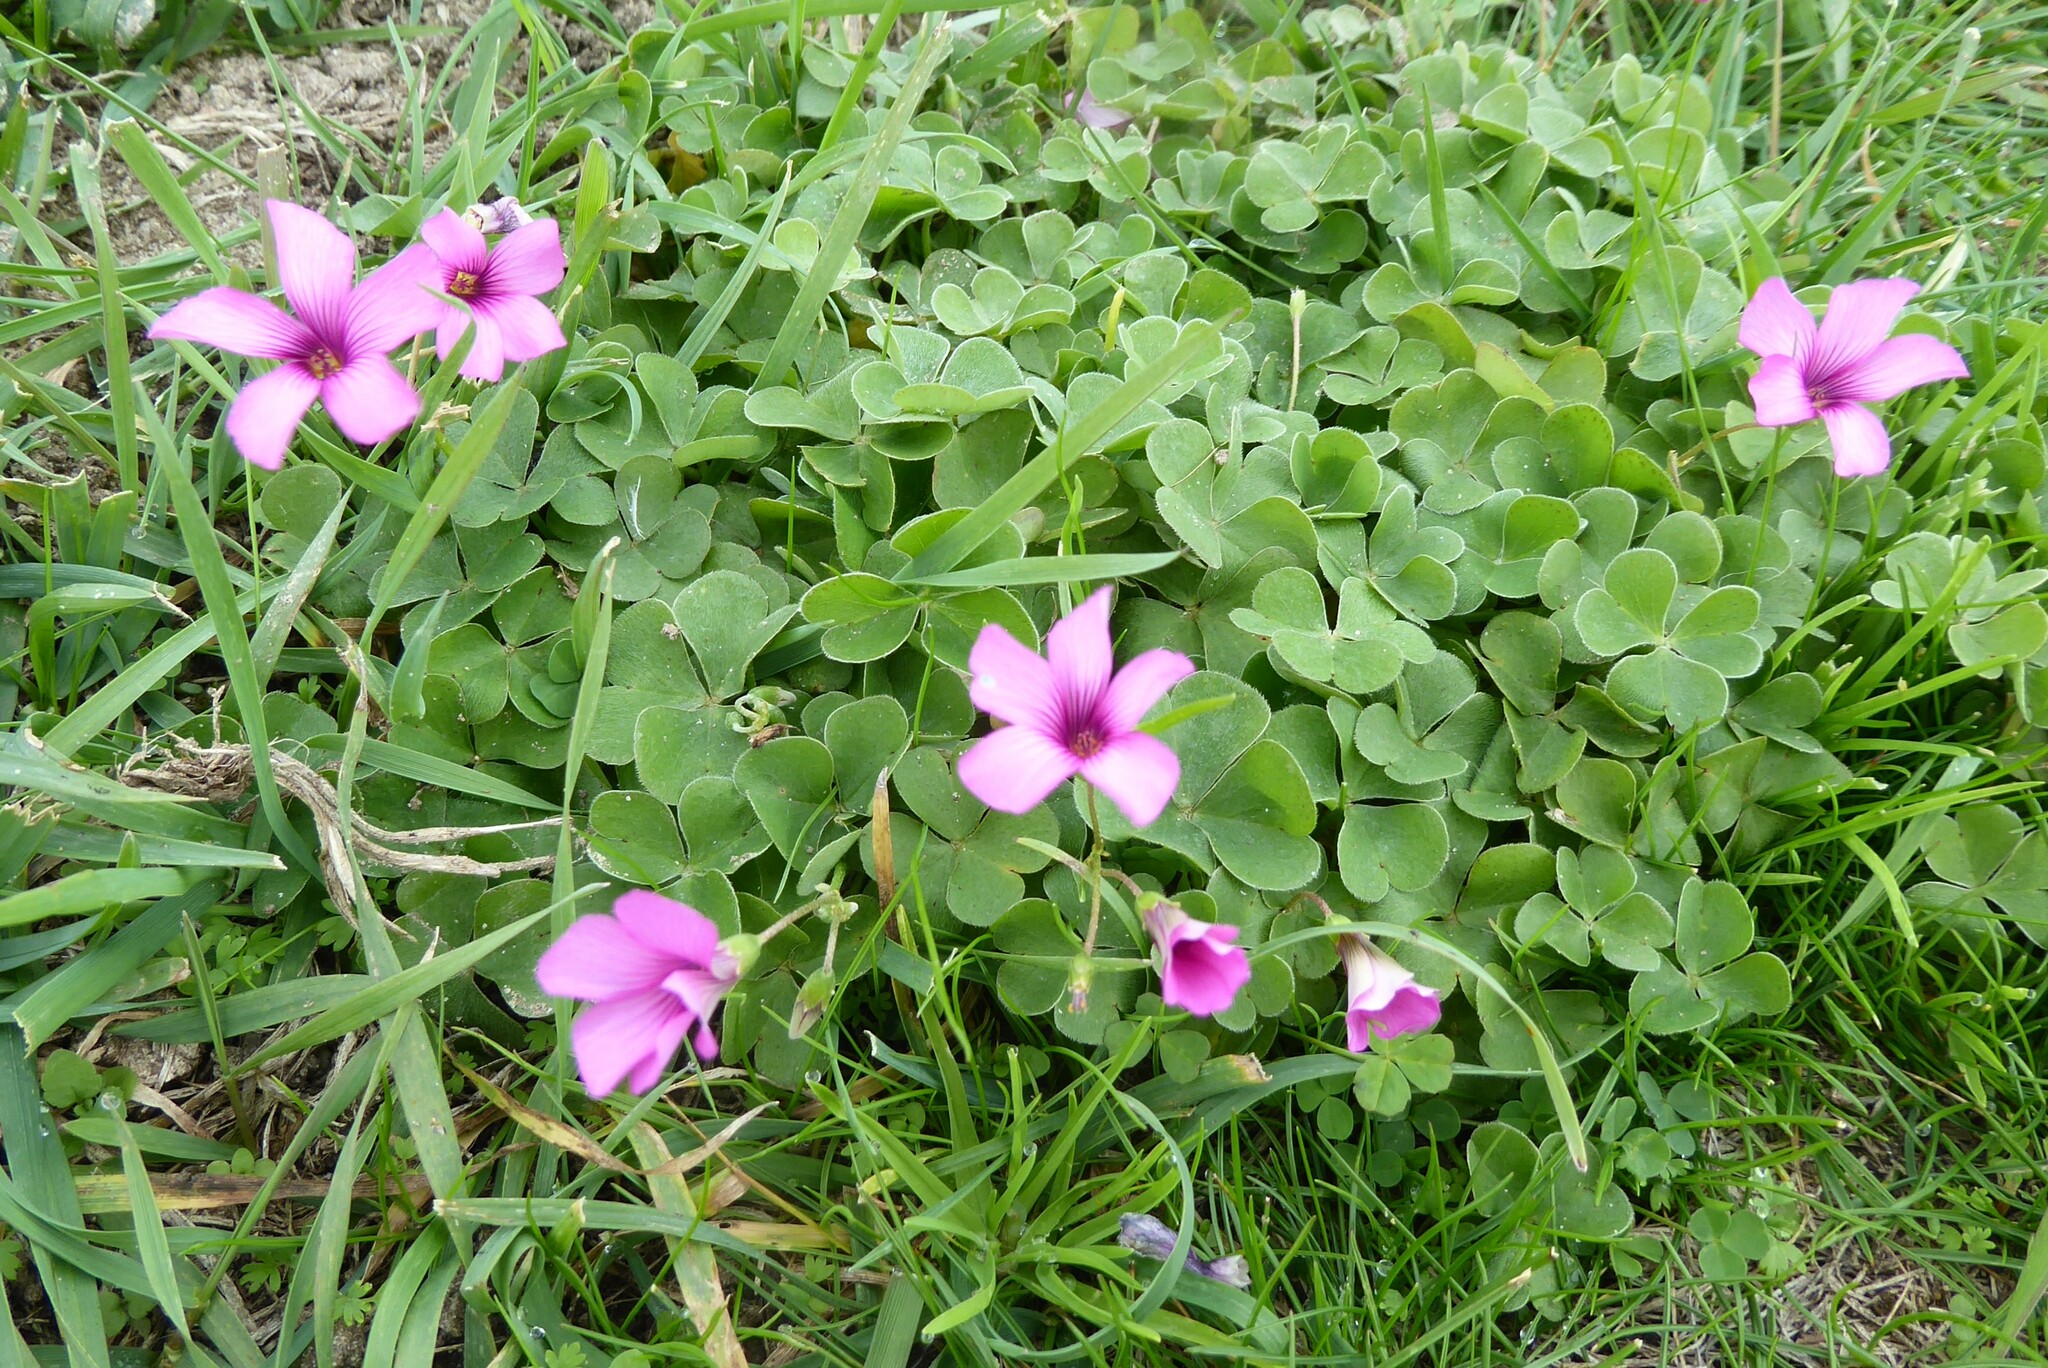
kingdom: Plantae
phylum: Tracheophyta
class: Magnoliopsida
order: Oxalidales
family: Oxalidaceae
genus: Oxalis
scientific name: Oxalis articulata
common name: Pink-sorrel
